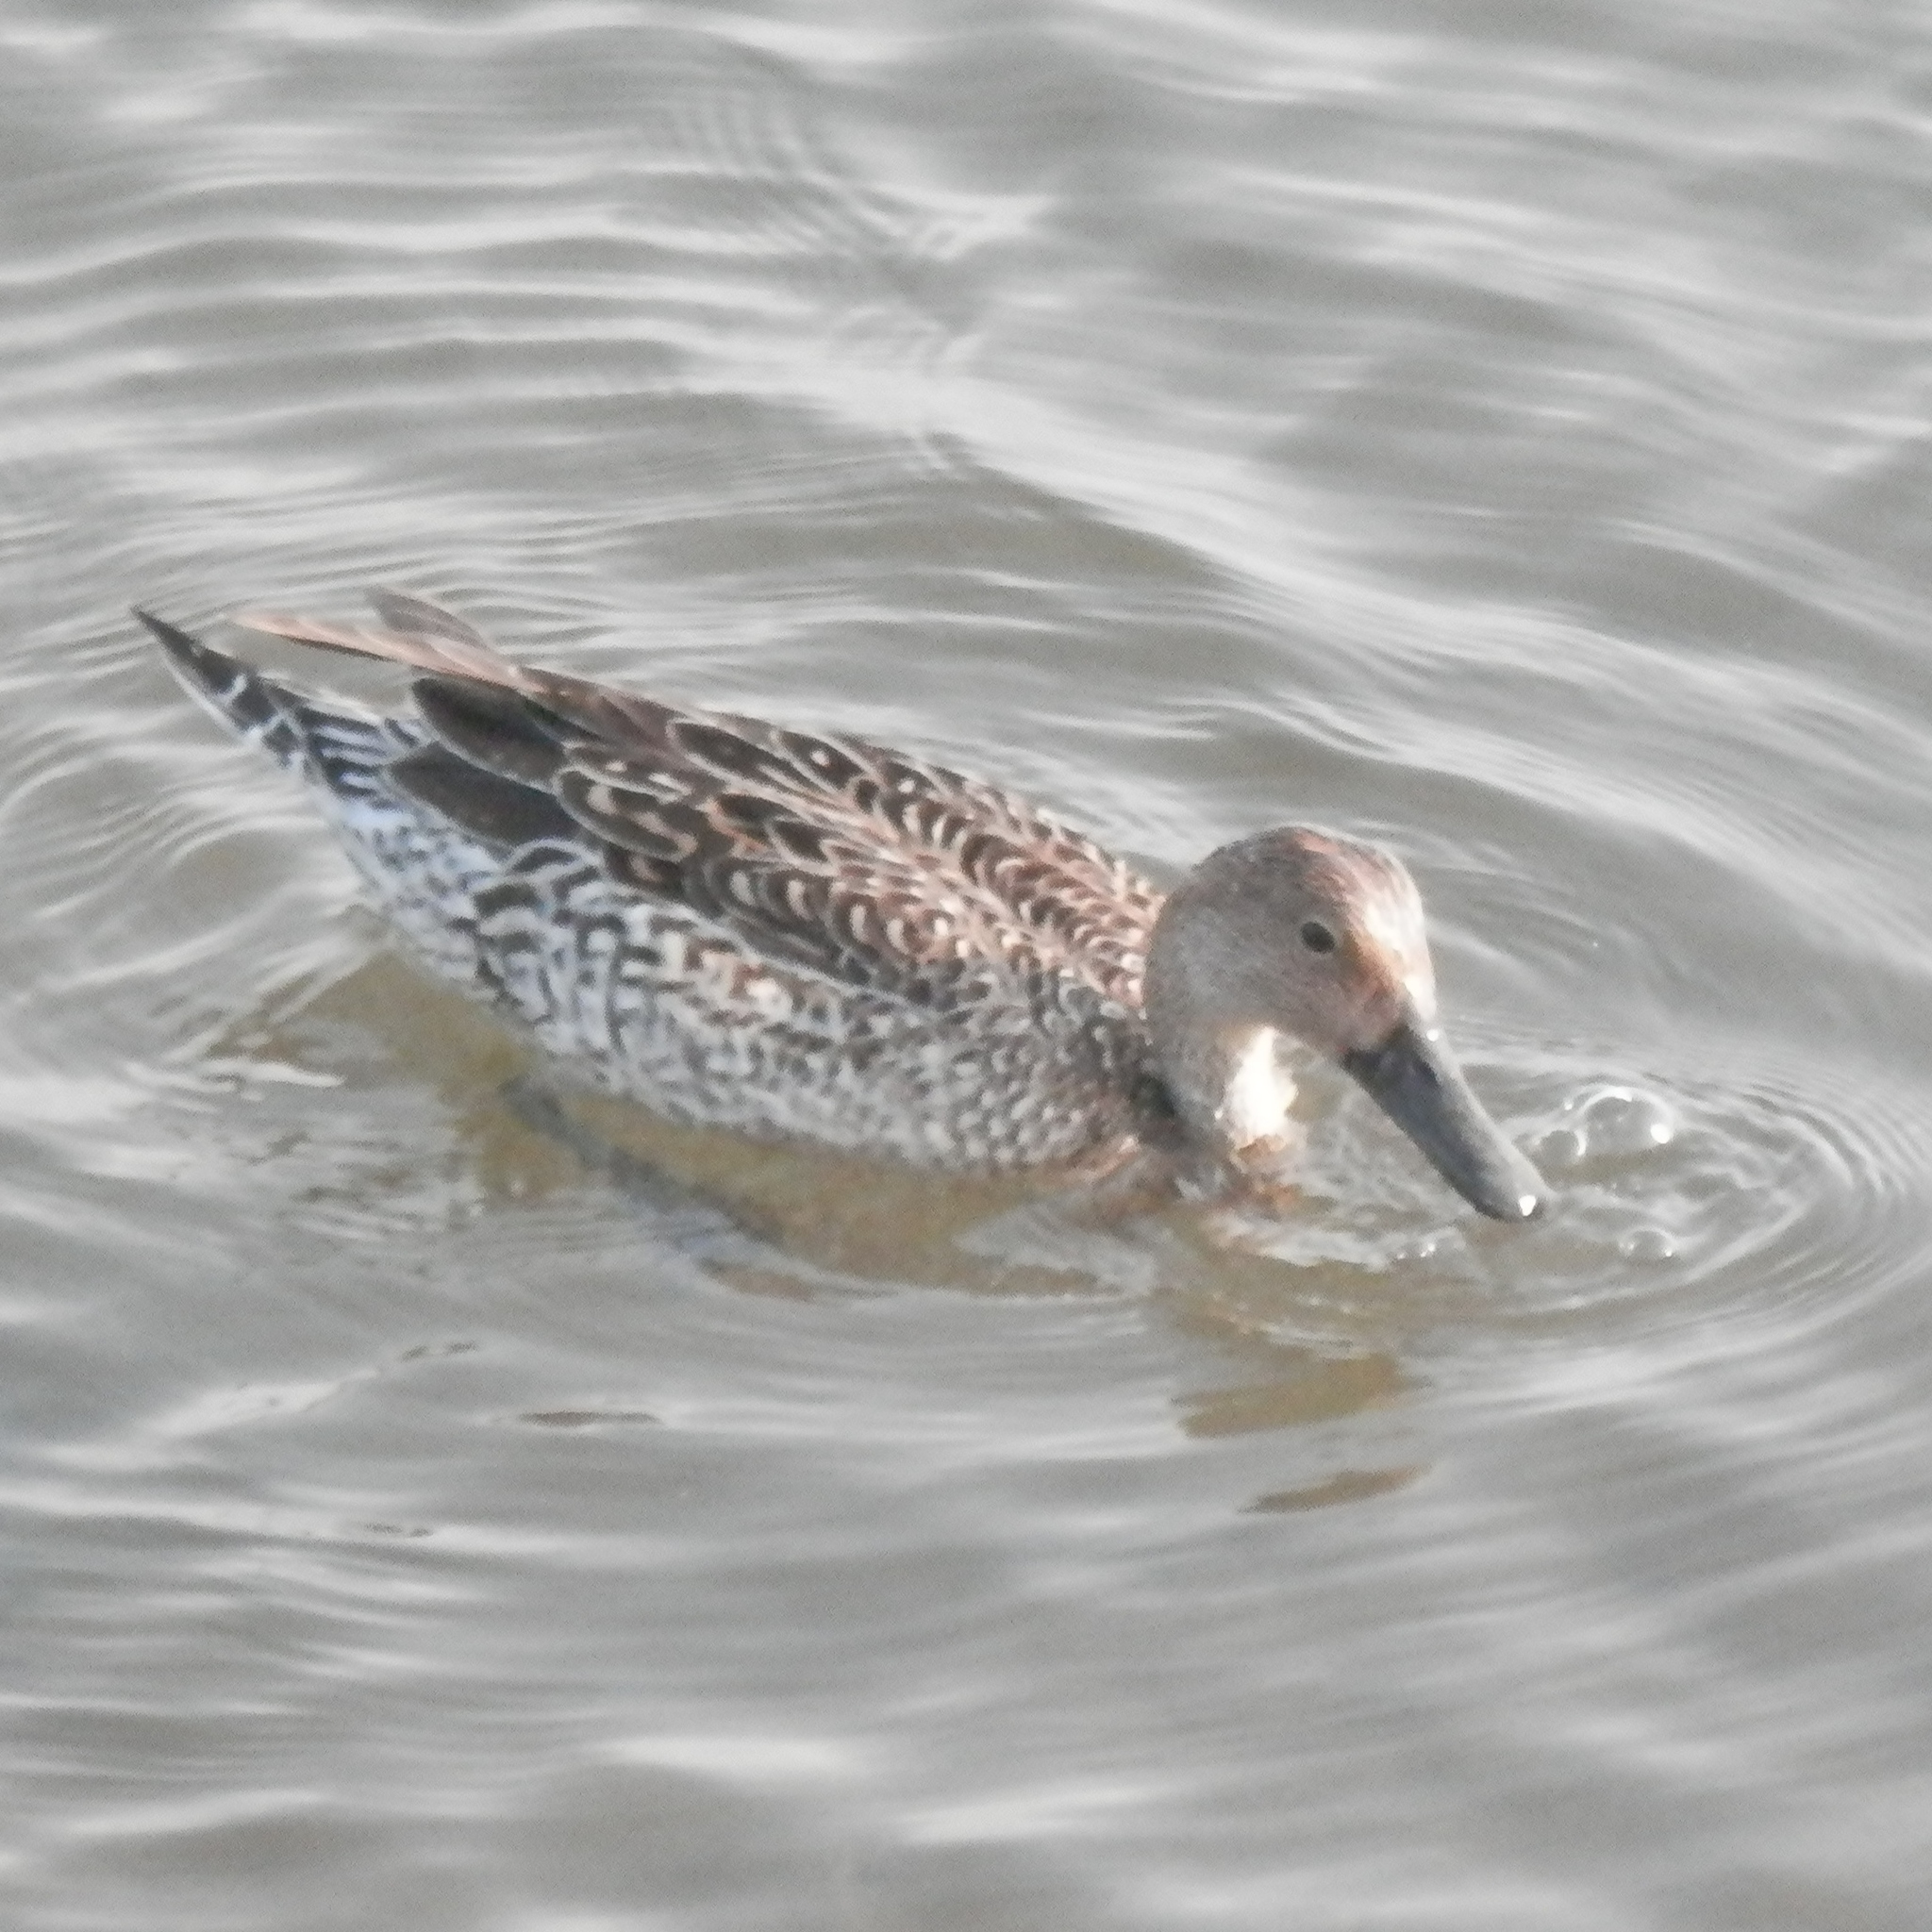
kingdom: Animalia
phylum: Chordata
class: Aves
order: Anseriformes
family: Anatidae
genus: Anas
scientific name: Anas acuta
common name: Northern pintail
